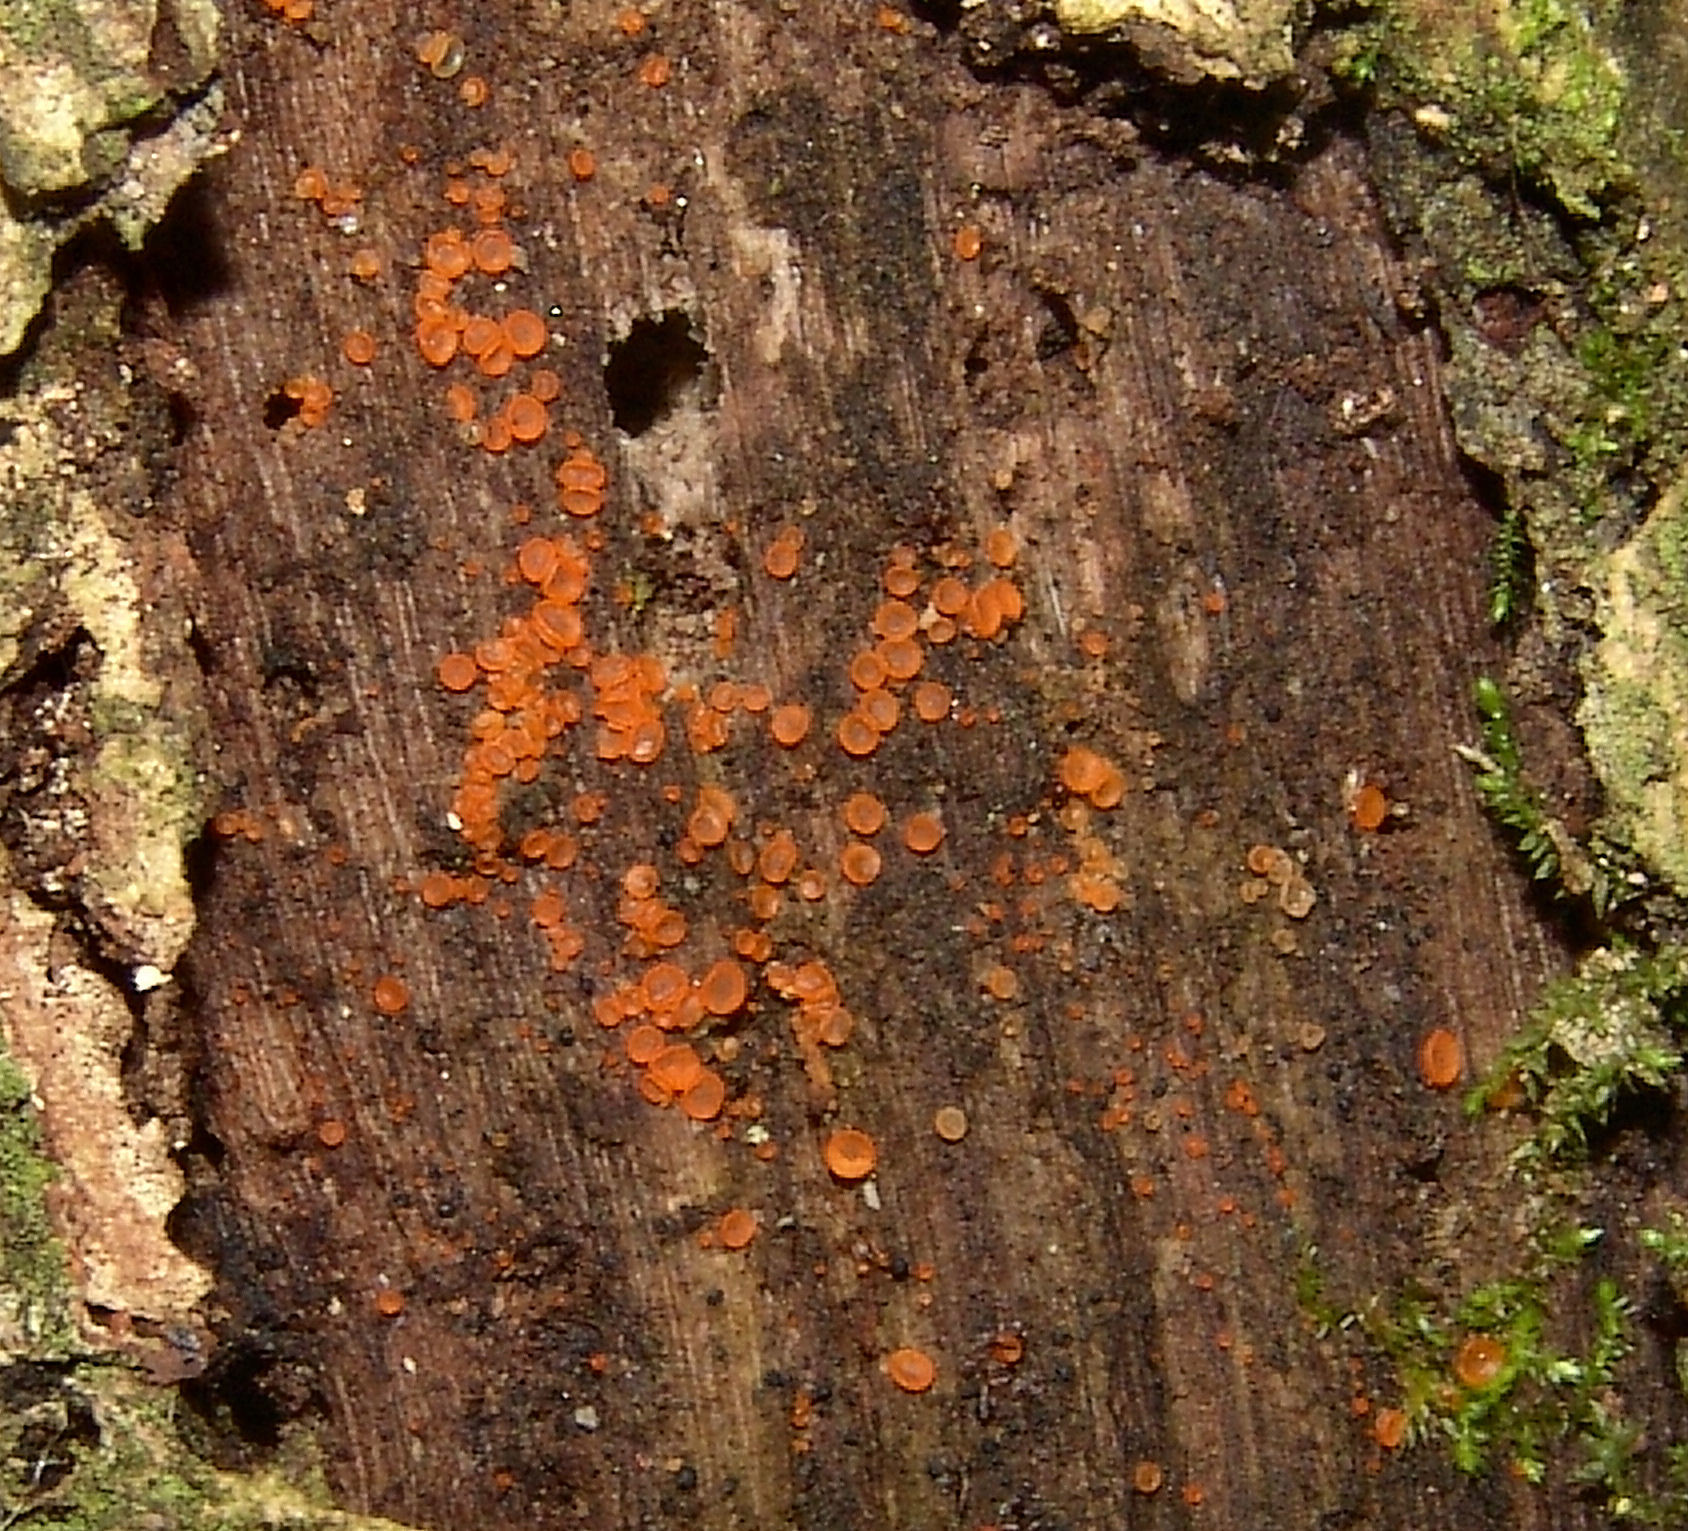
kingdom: Fungi
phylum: Ascomycota
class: Orbiliomycetes
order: Orbiliales
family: Orbiliaceae
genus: Orbilia
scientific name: Orbilia
